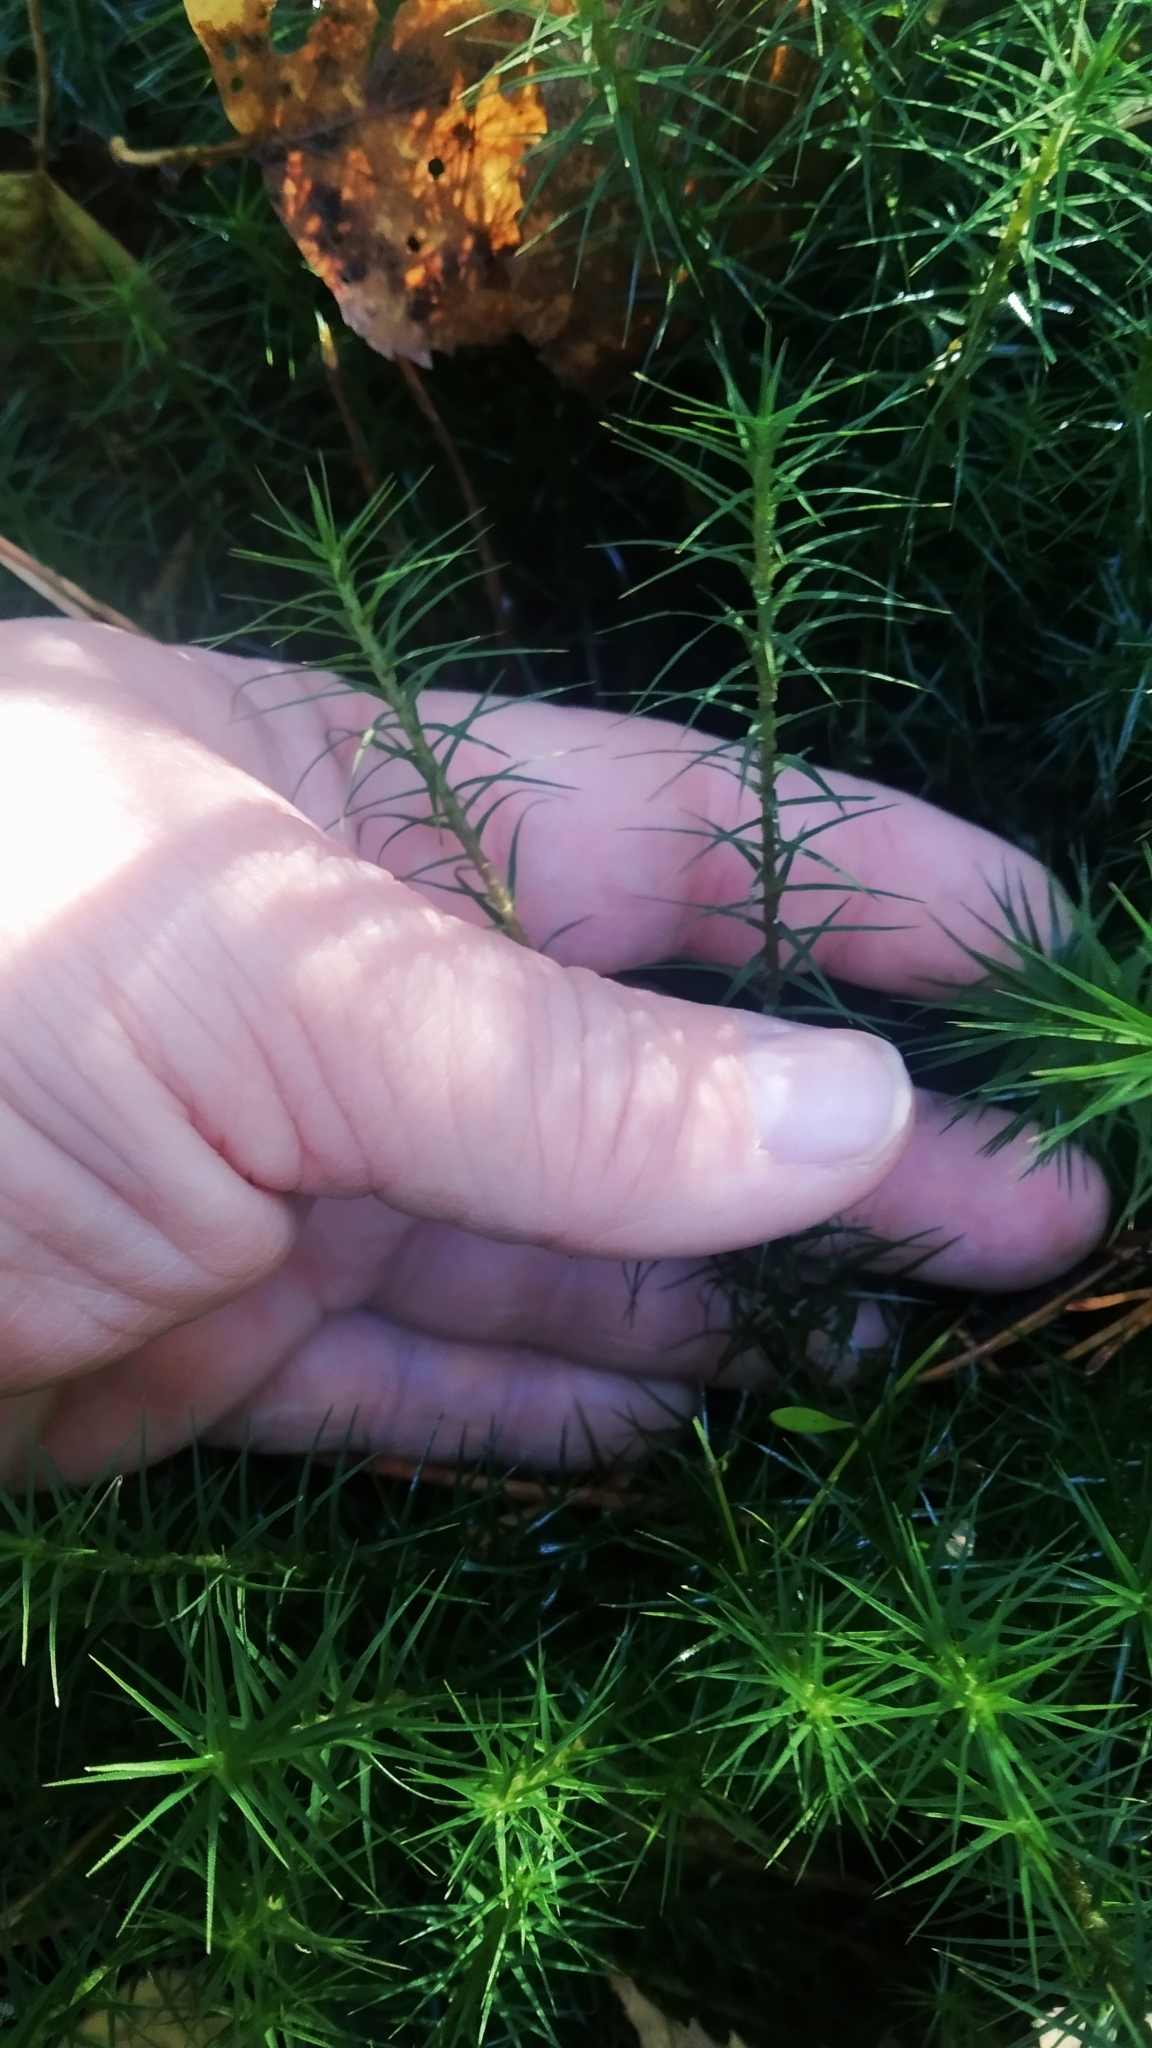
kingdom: Plantae
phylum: Bryophyta
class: Polytrichopsida
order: Polytrichales
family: Polytrichaceae
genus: Polytrichum
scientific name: Polytrichum commune
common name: Common haircap
